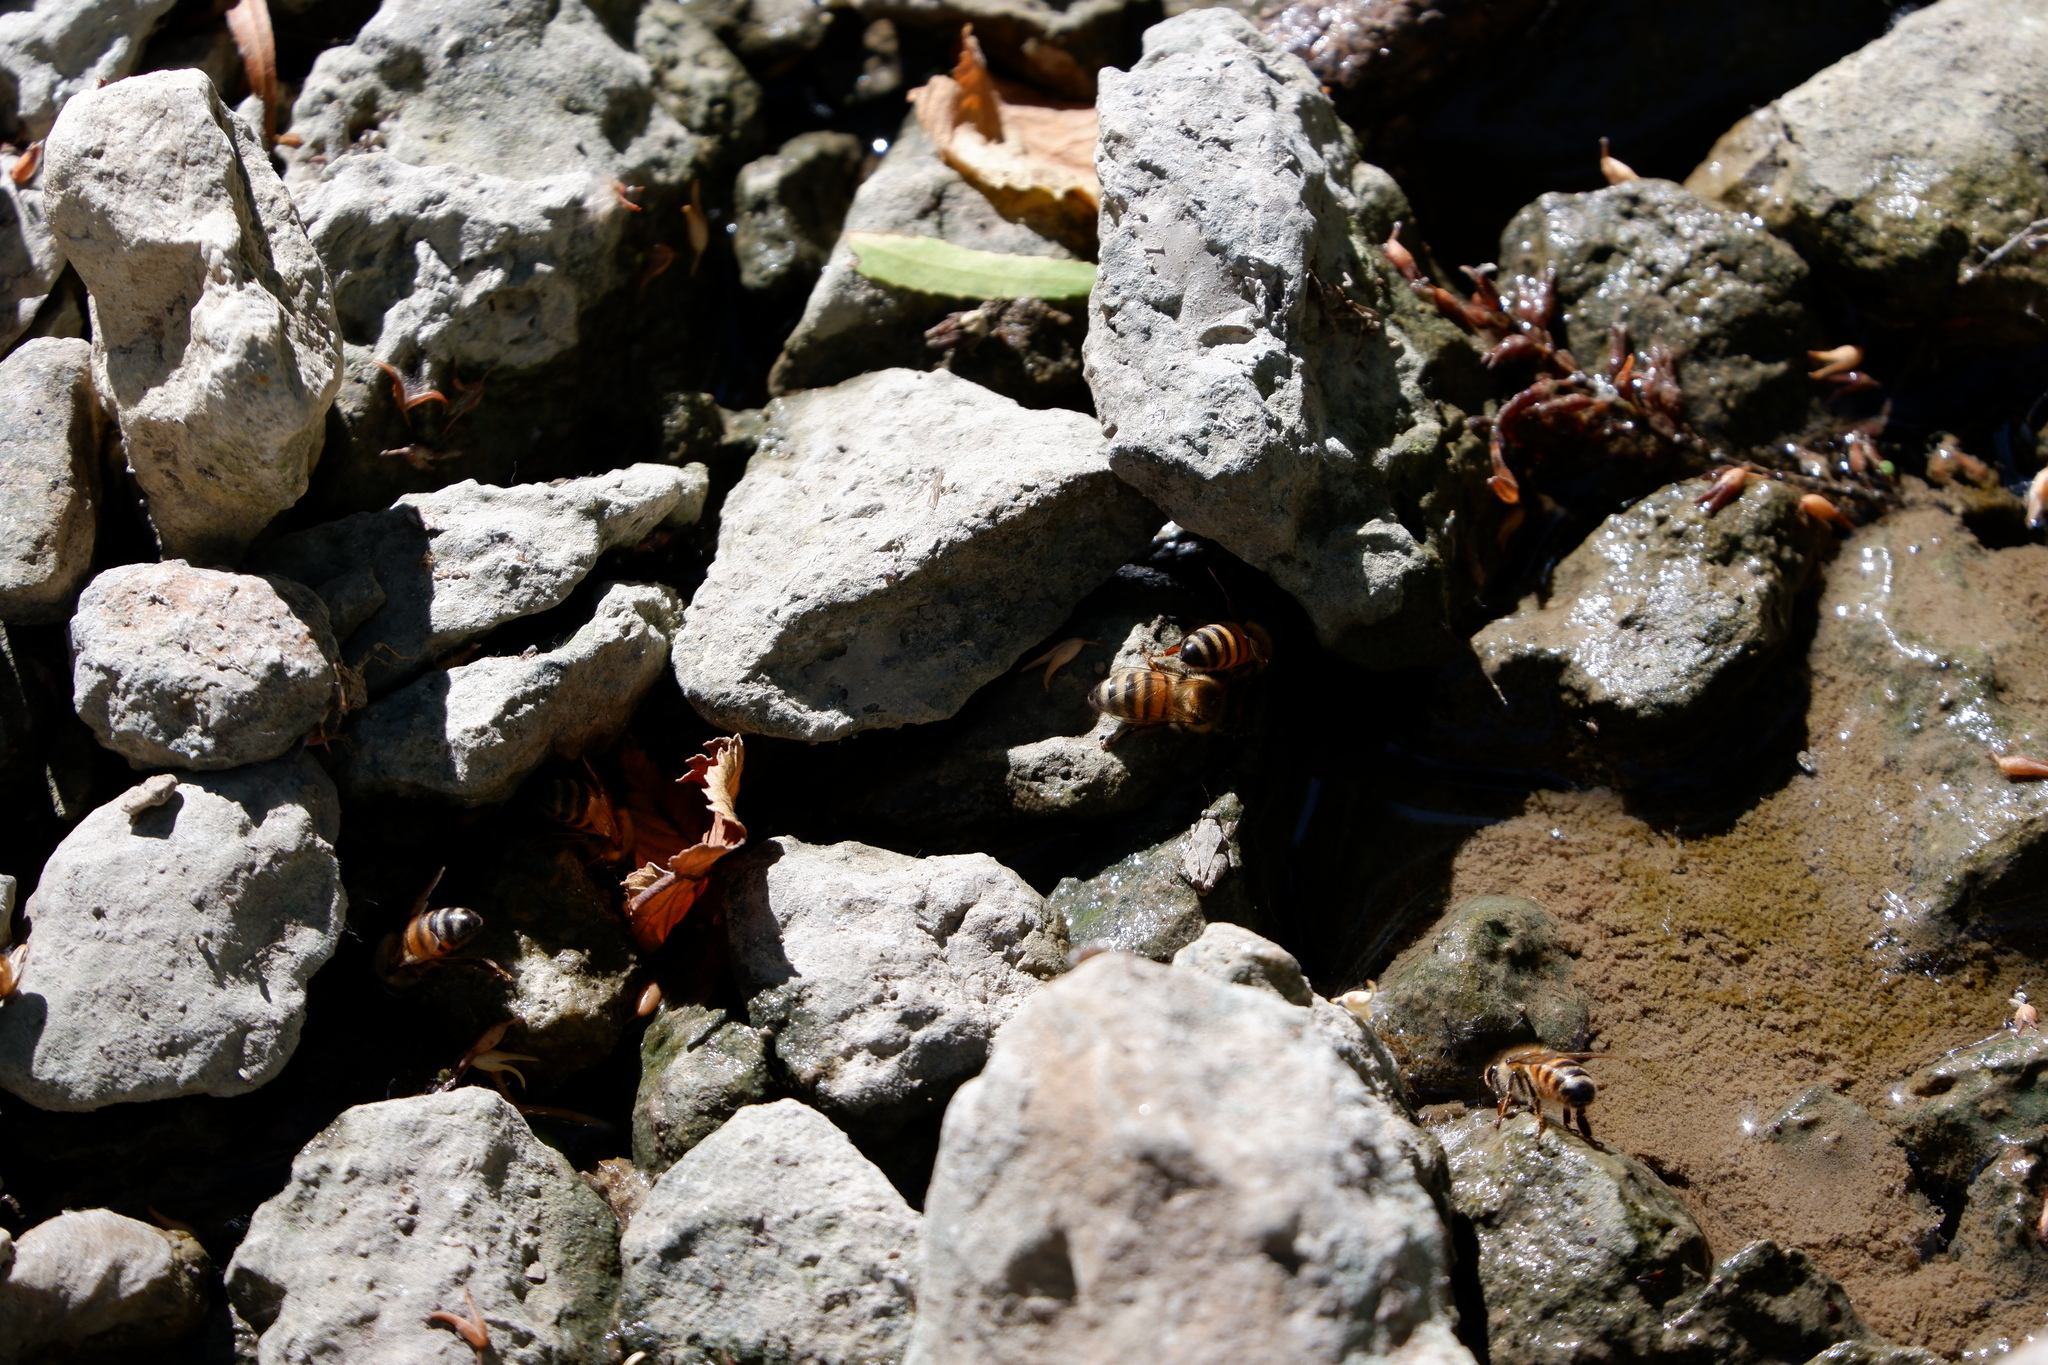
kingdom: Animalia
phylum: Arthropoda
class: Insecta
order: Hymenoptera
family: Apidae
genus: Apis
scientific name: Apis mellifera
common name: Honey bee
